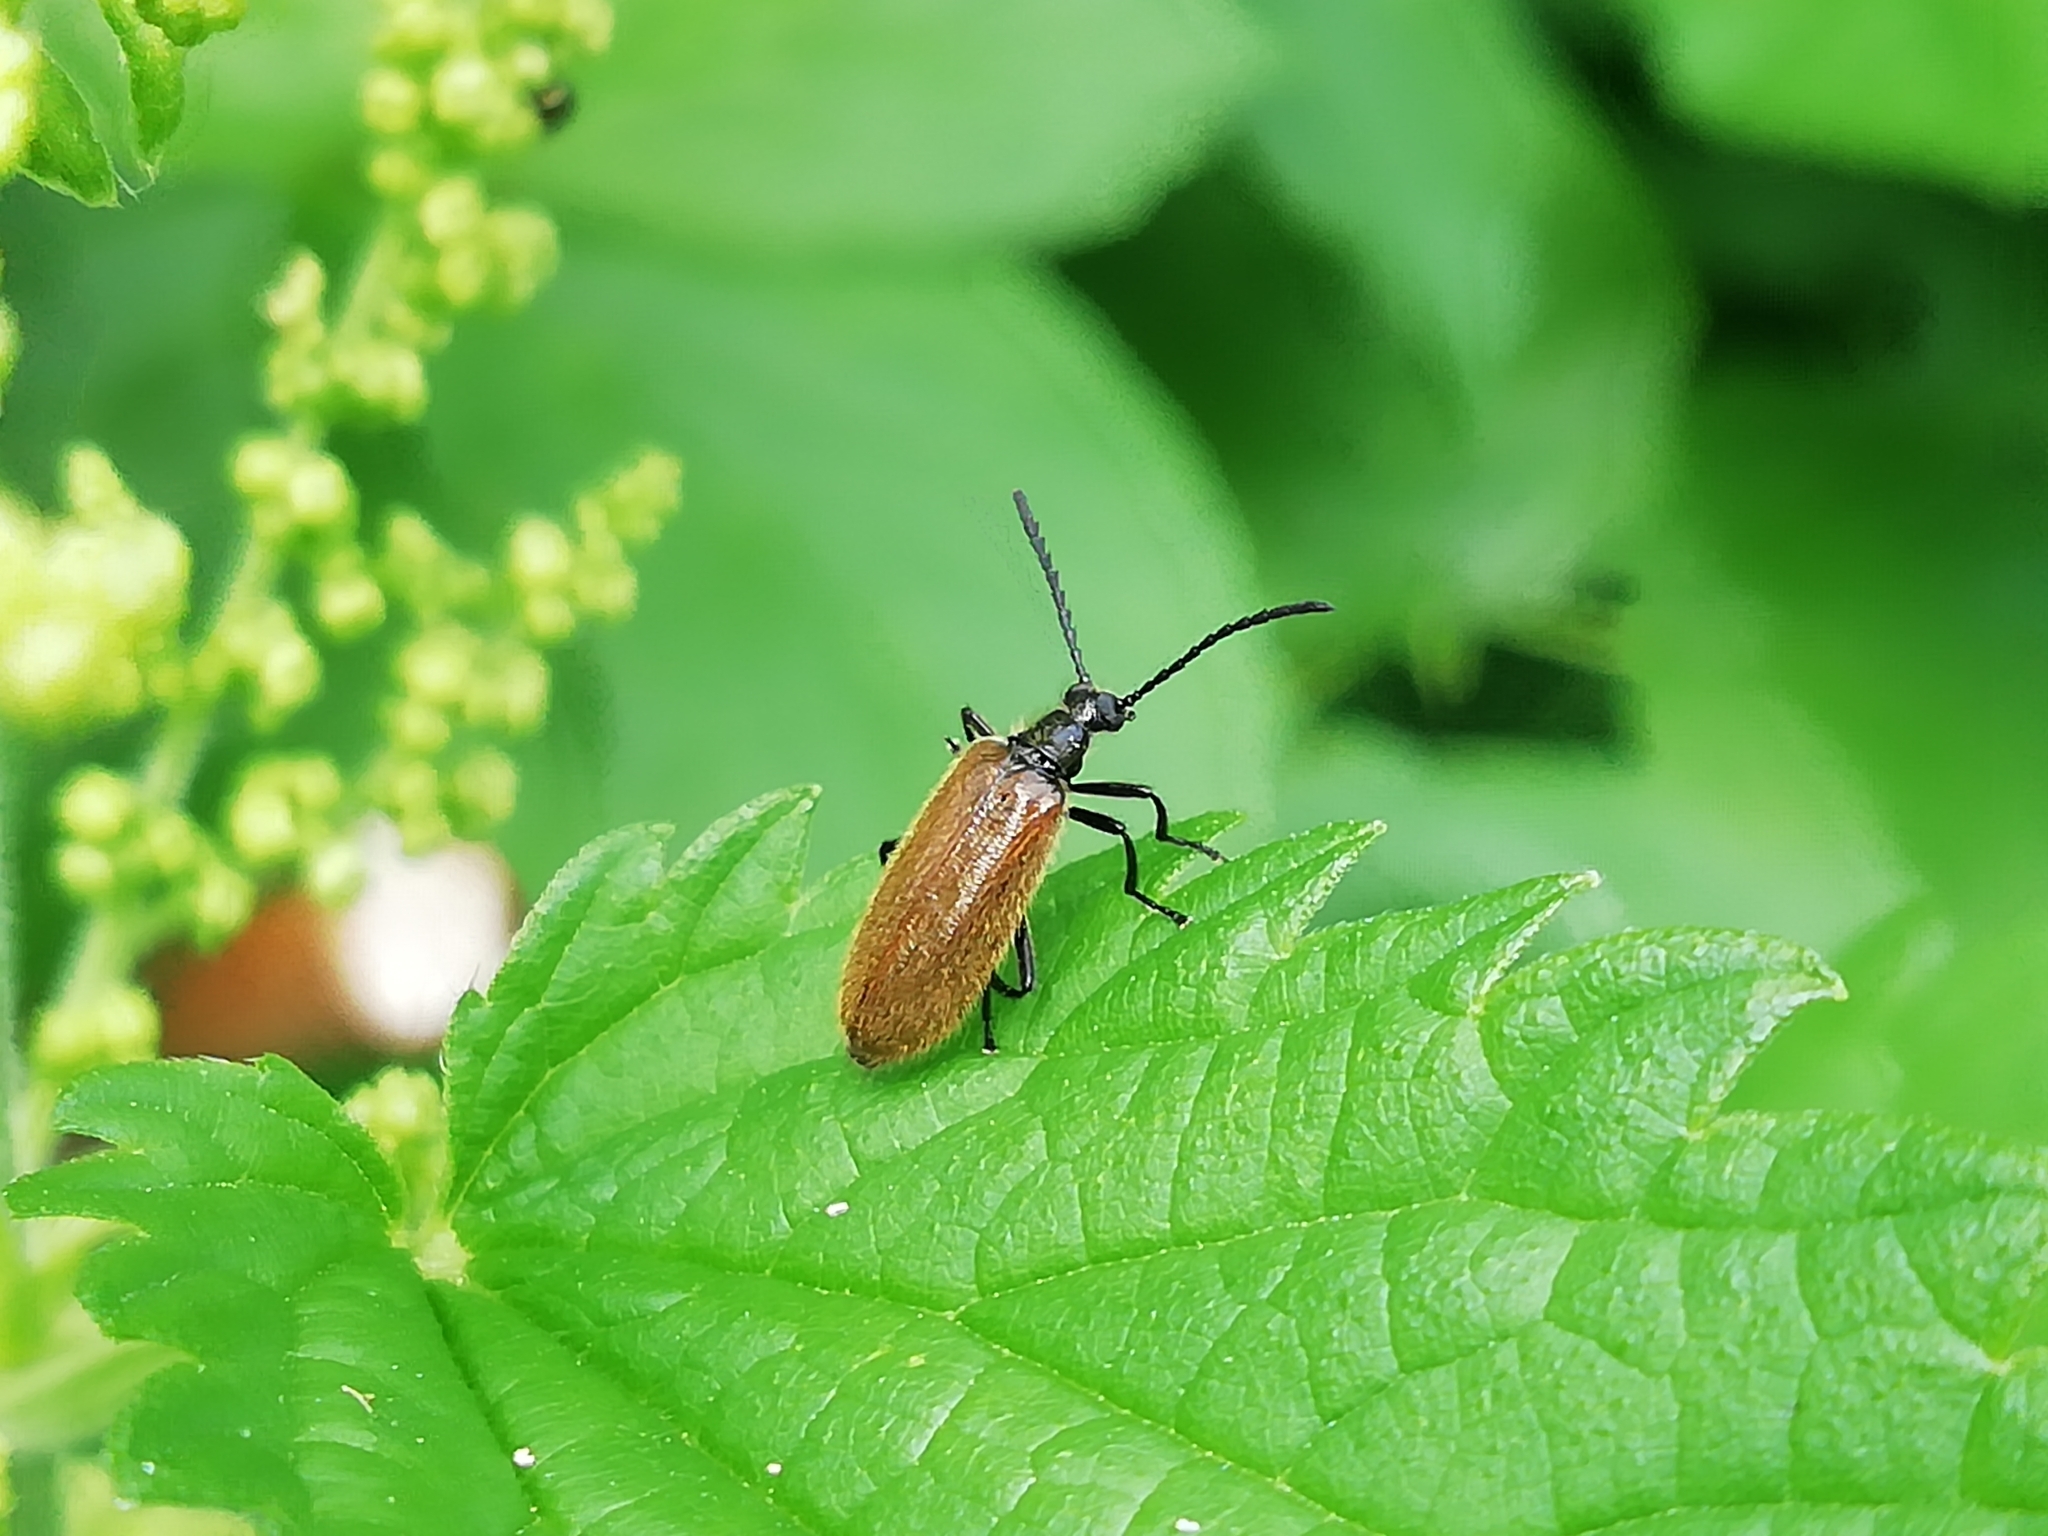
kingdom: Animalia
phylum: Arthropoda
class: Insecta
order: Coleoptera
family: Tenebrionidae
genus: Lagria
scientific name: Lagria hirta
